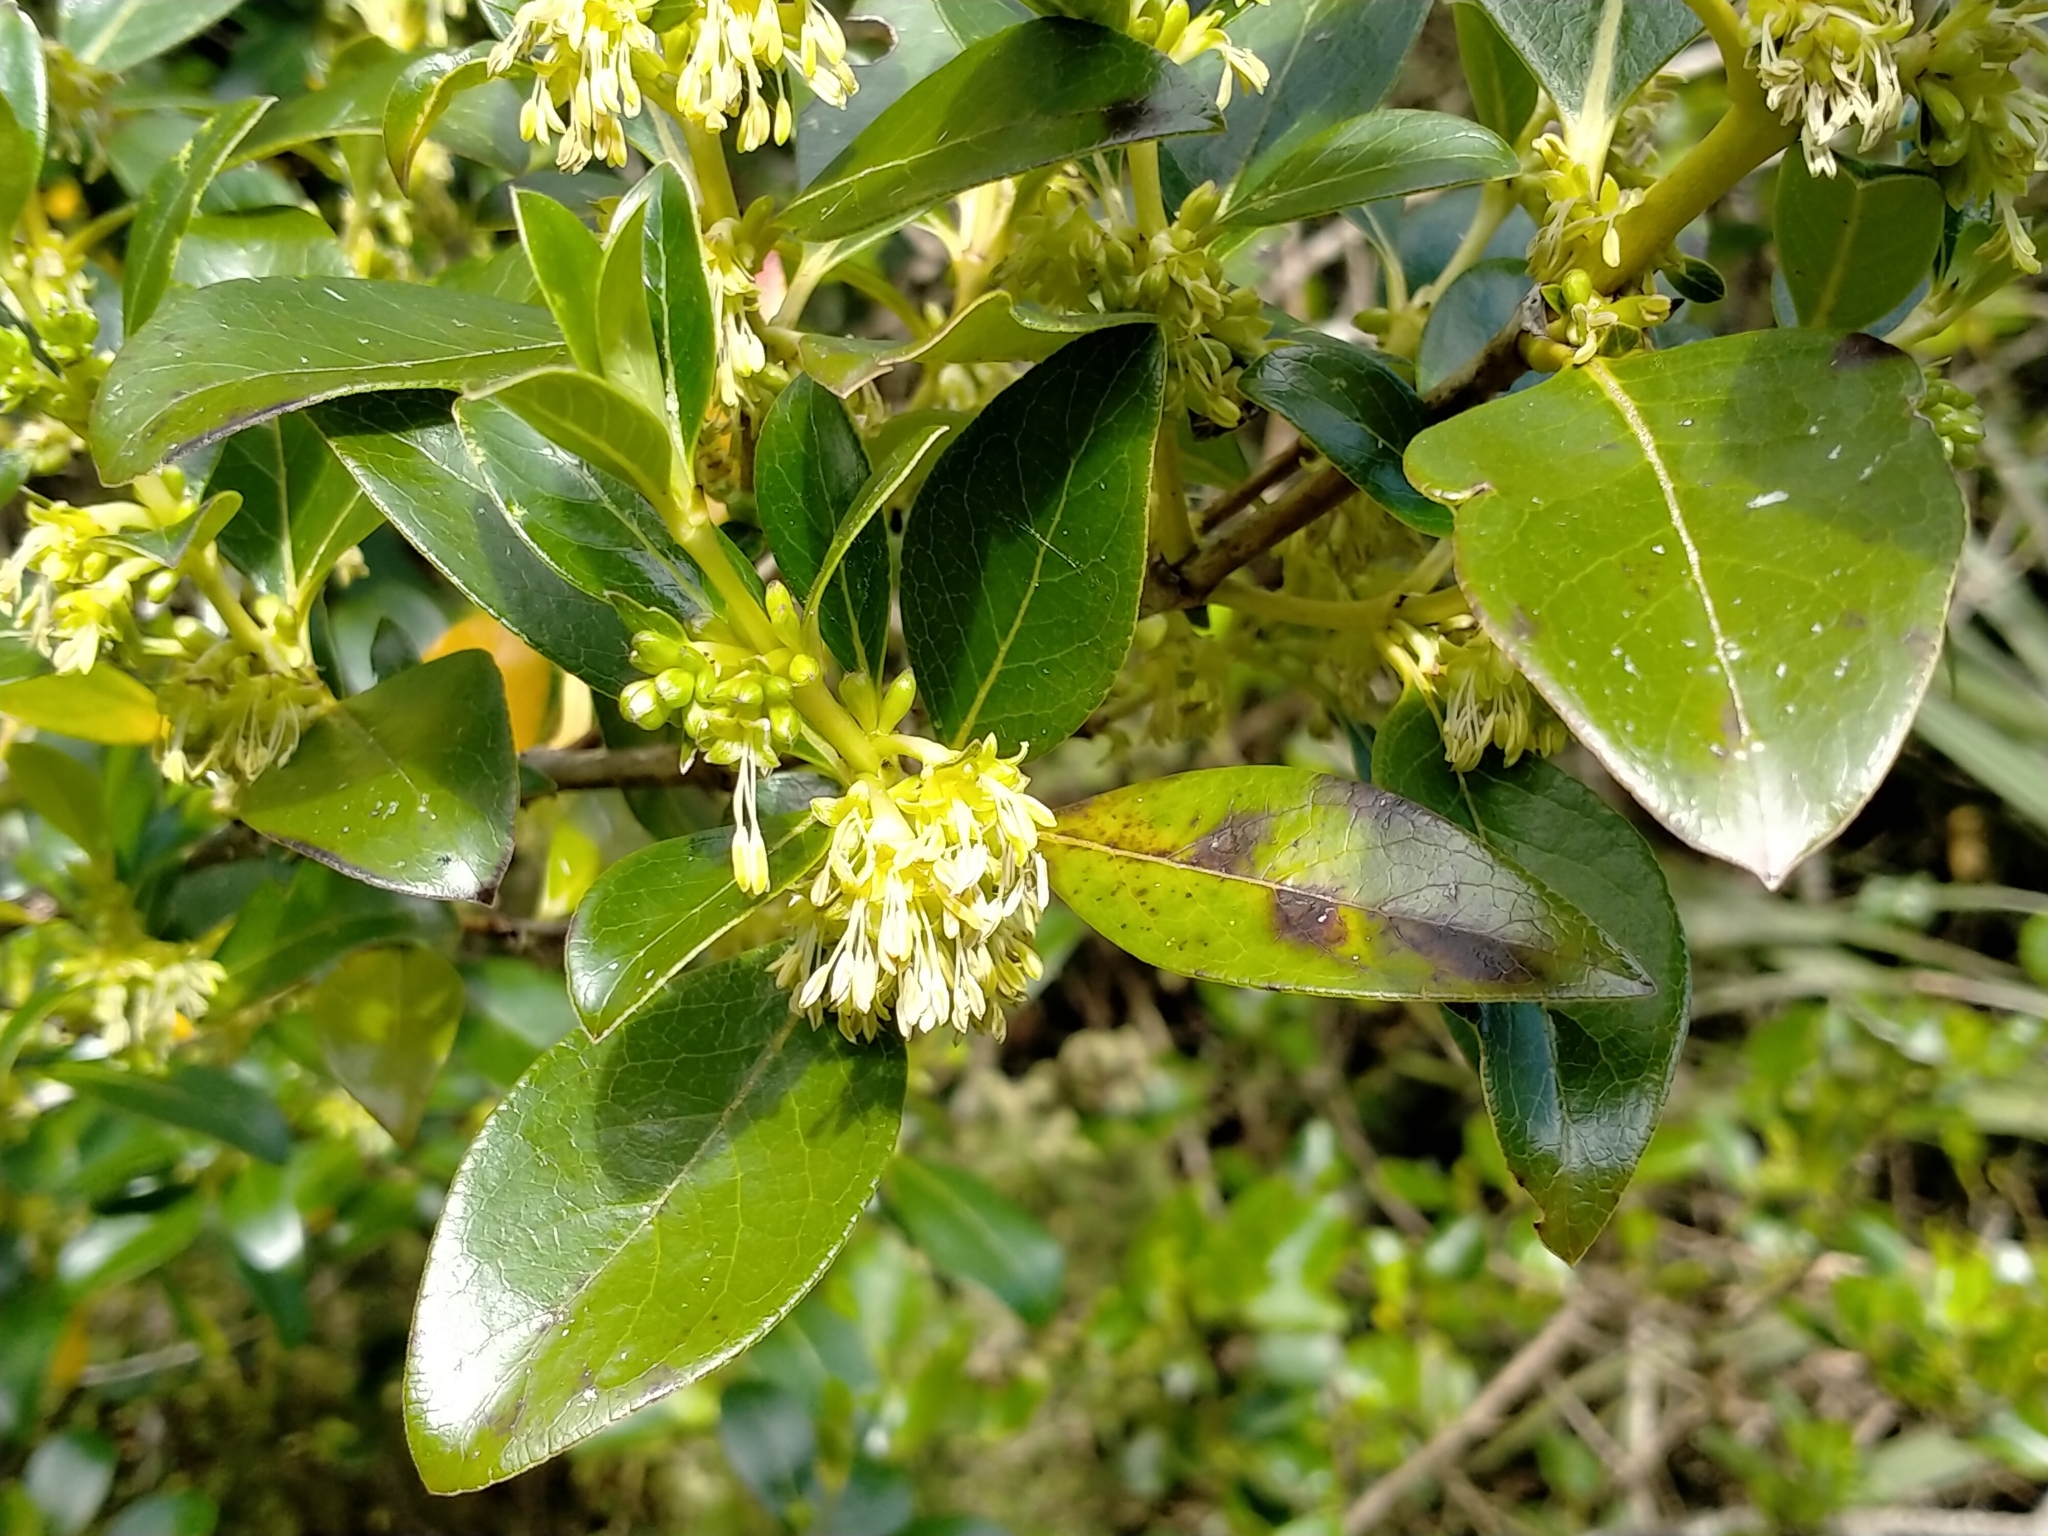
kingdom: Plantae
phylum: Tracheophyta
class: Magnoliopsida
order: Gentianales
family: Rubiaceae
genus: Coprosma
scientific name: Coprosma robusta
